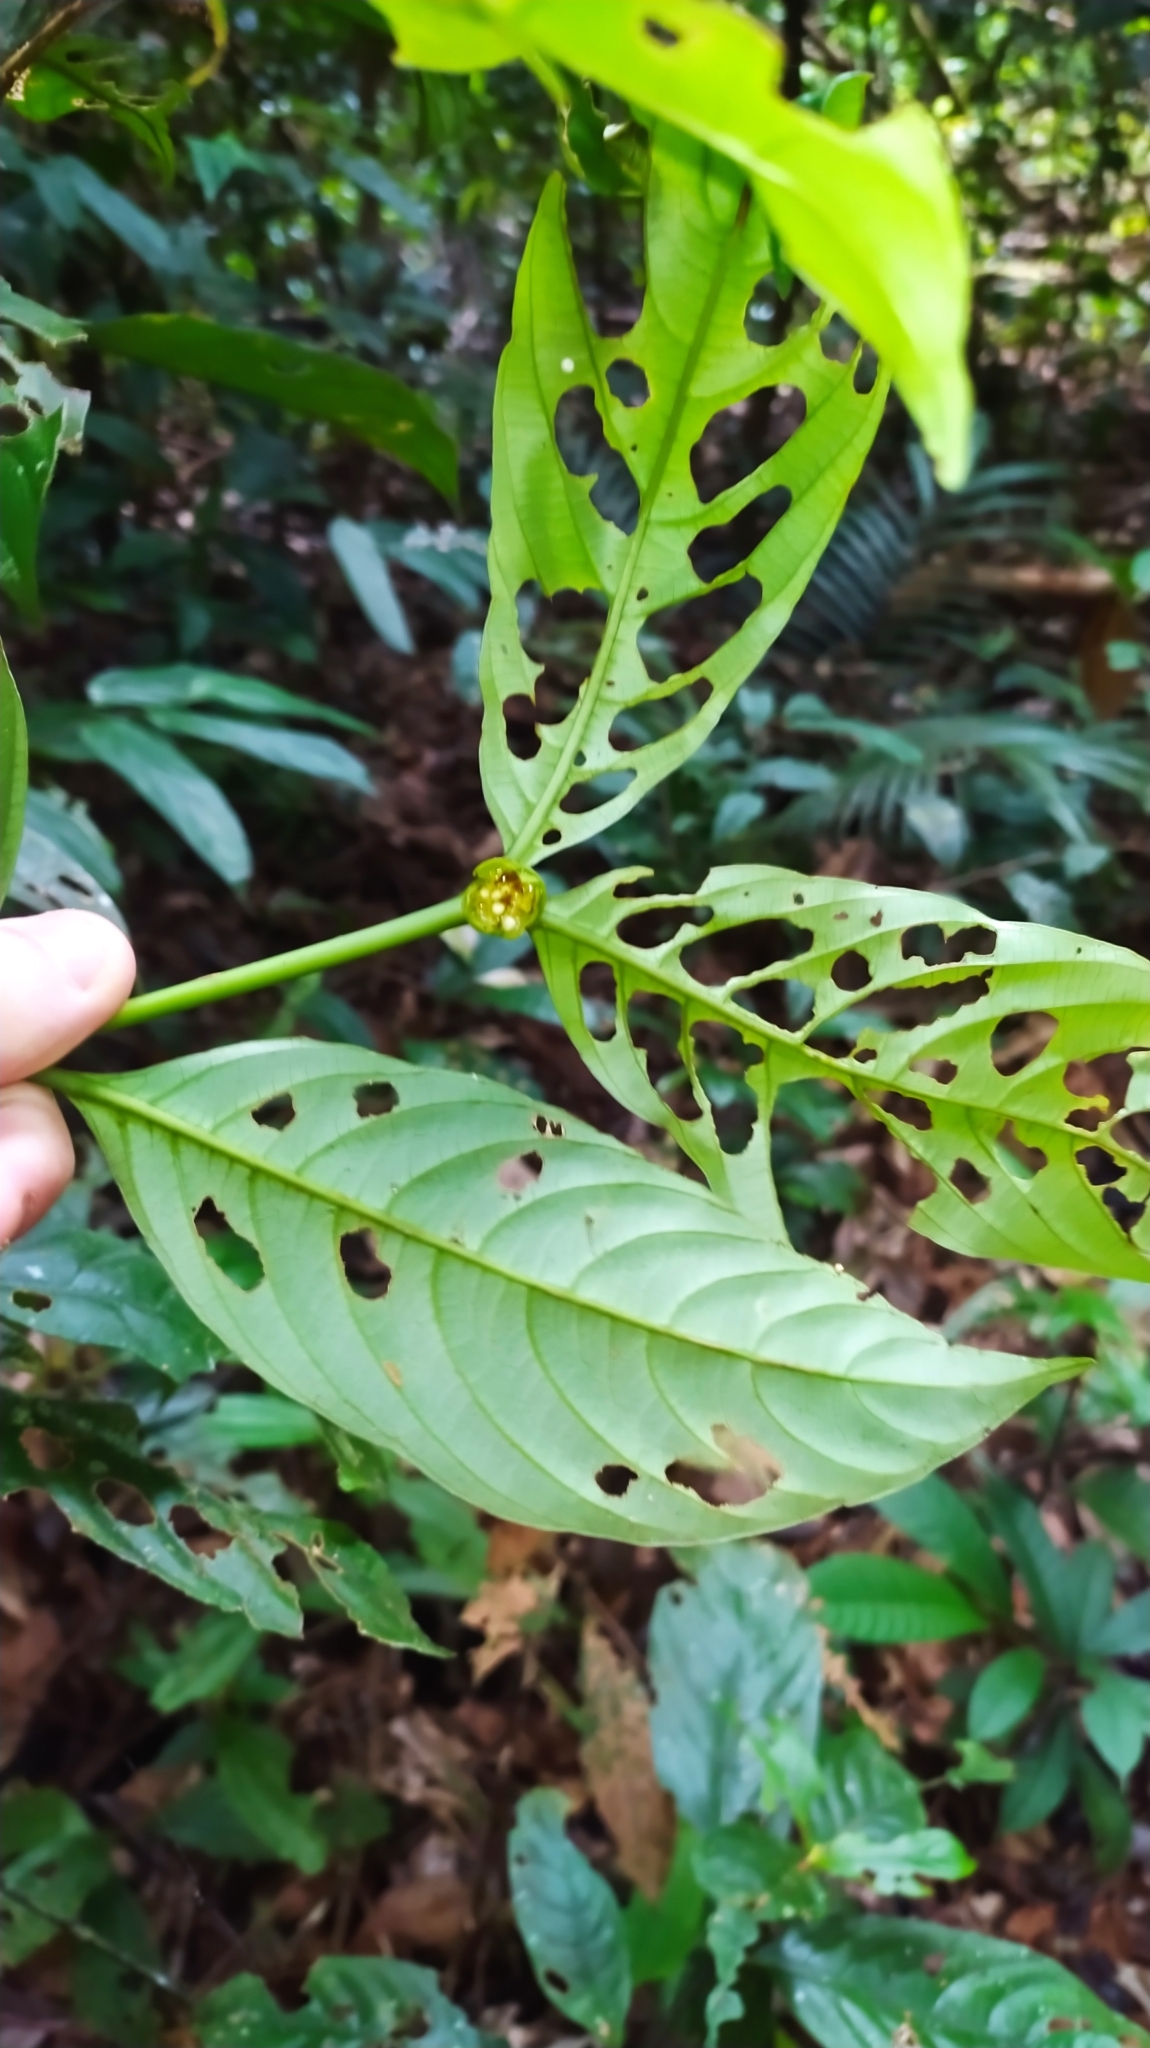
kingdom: Plantae
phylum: Tracheophyta
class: Magnoliopsida
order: Gentianales
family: Rubiaceae
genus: Palicourea
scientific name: Palicourea dichotoma
